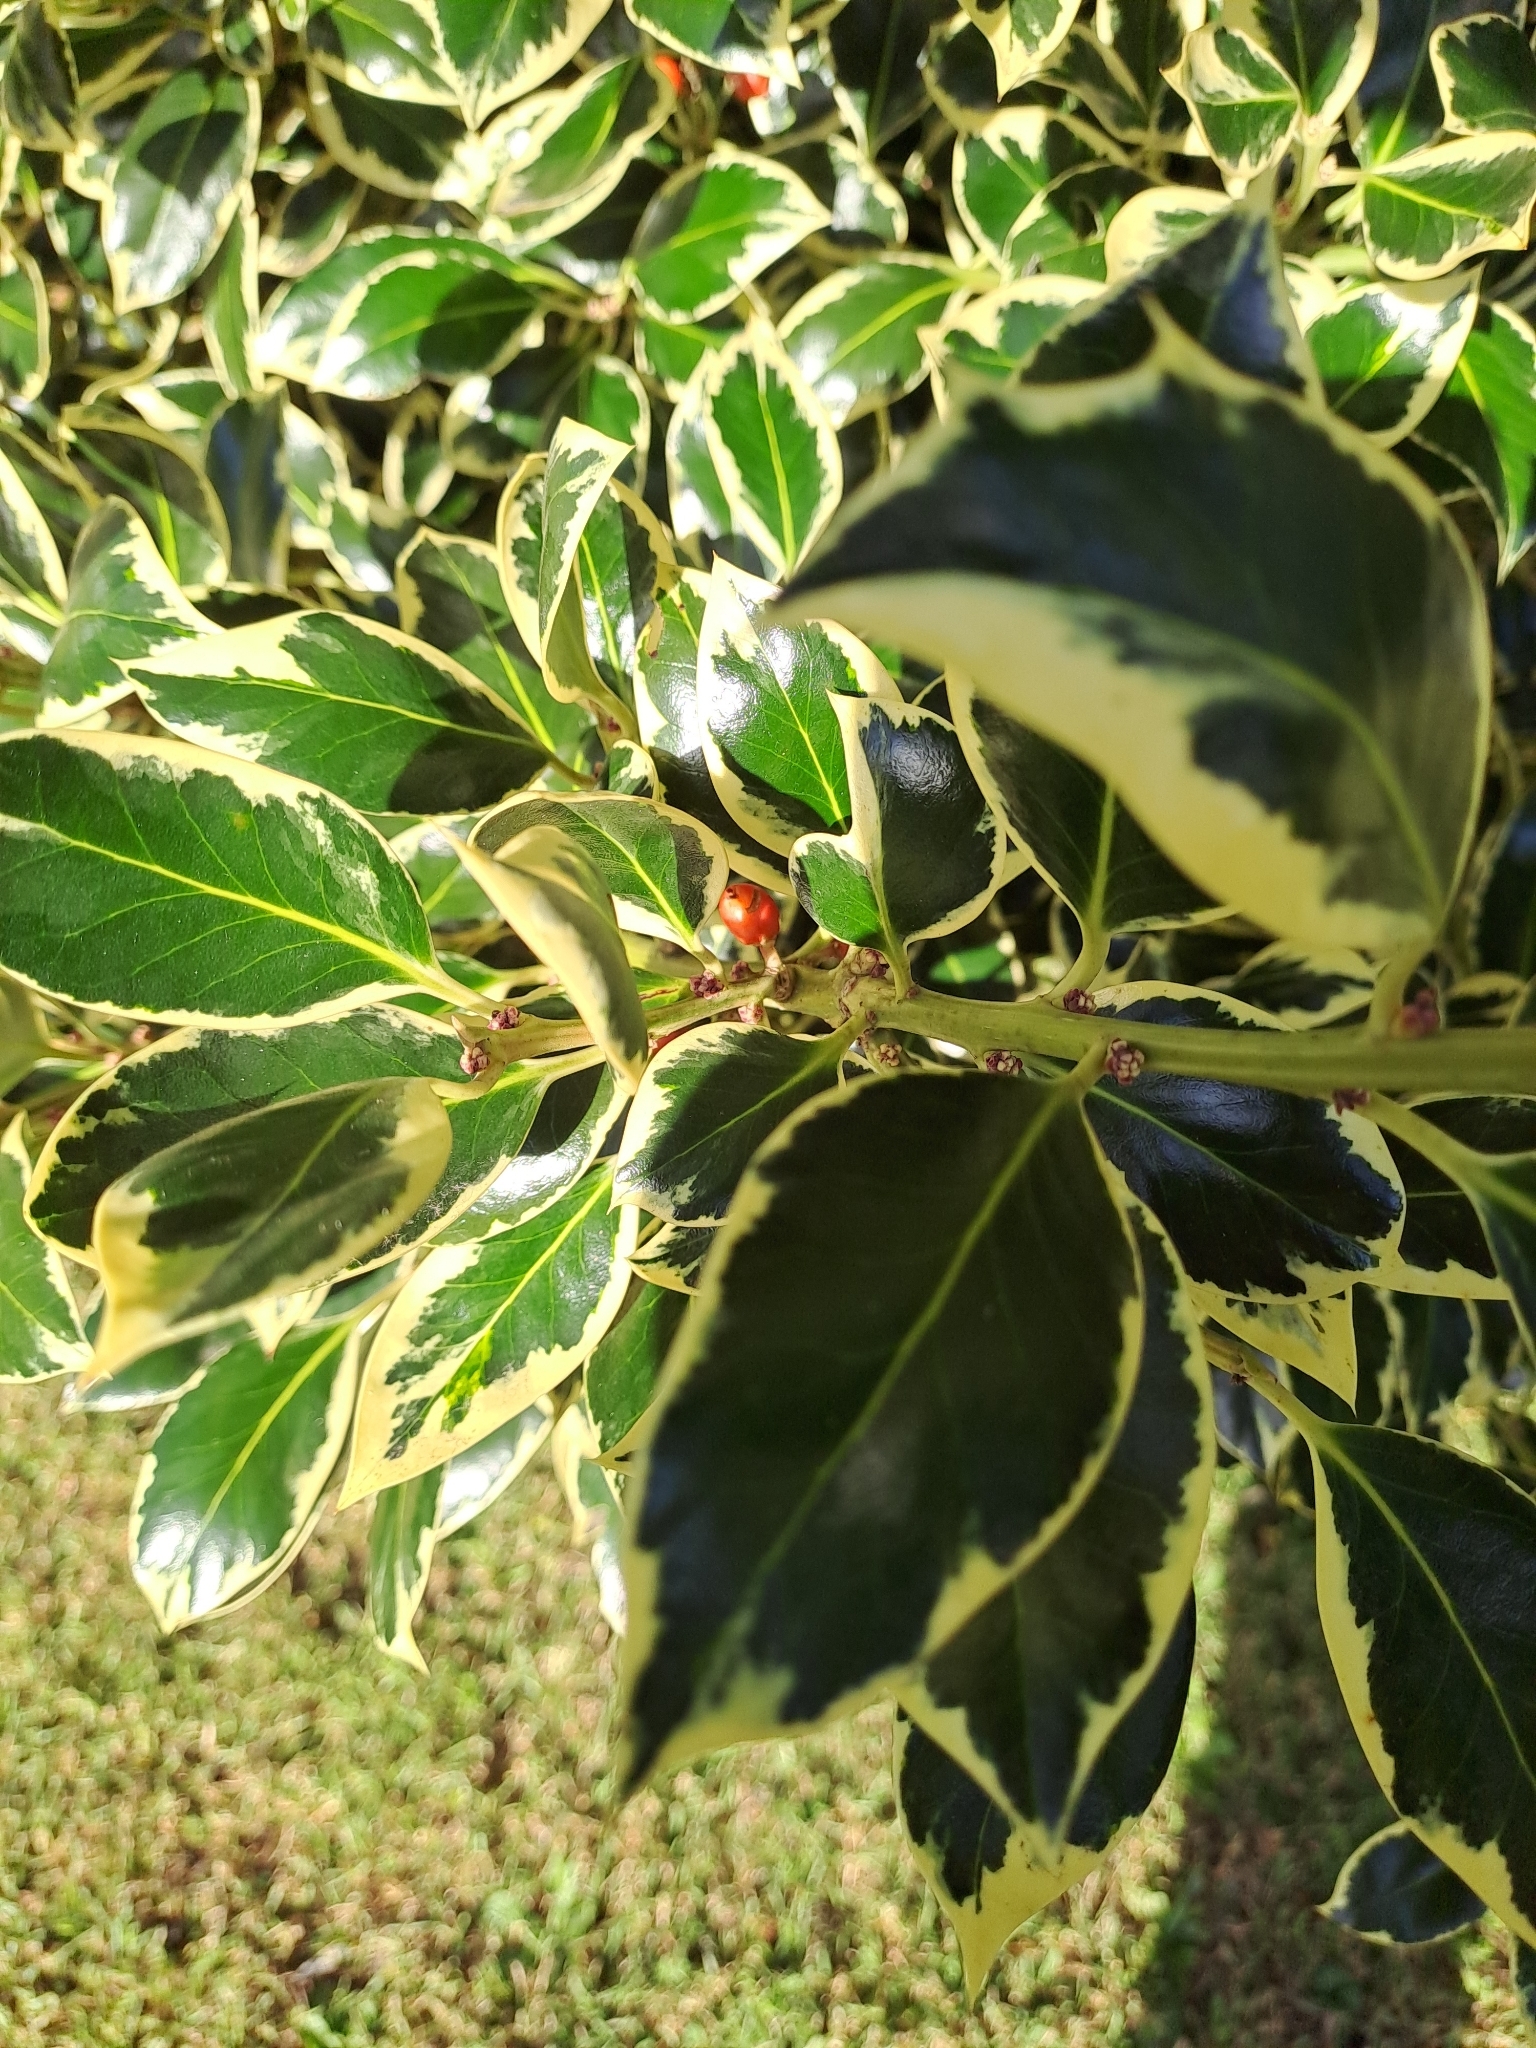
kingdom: Plantae
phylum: Tracheophyta
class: Magnoliopsida
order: Aquifoliales
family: Aquifoliaceae
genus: Ilex
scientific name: Ilex aquifolium
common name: English holly
